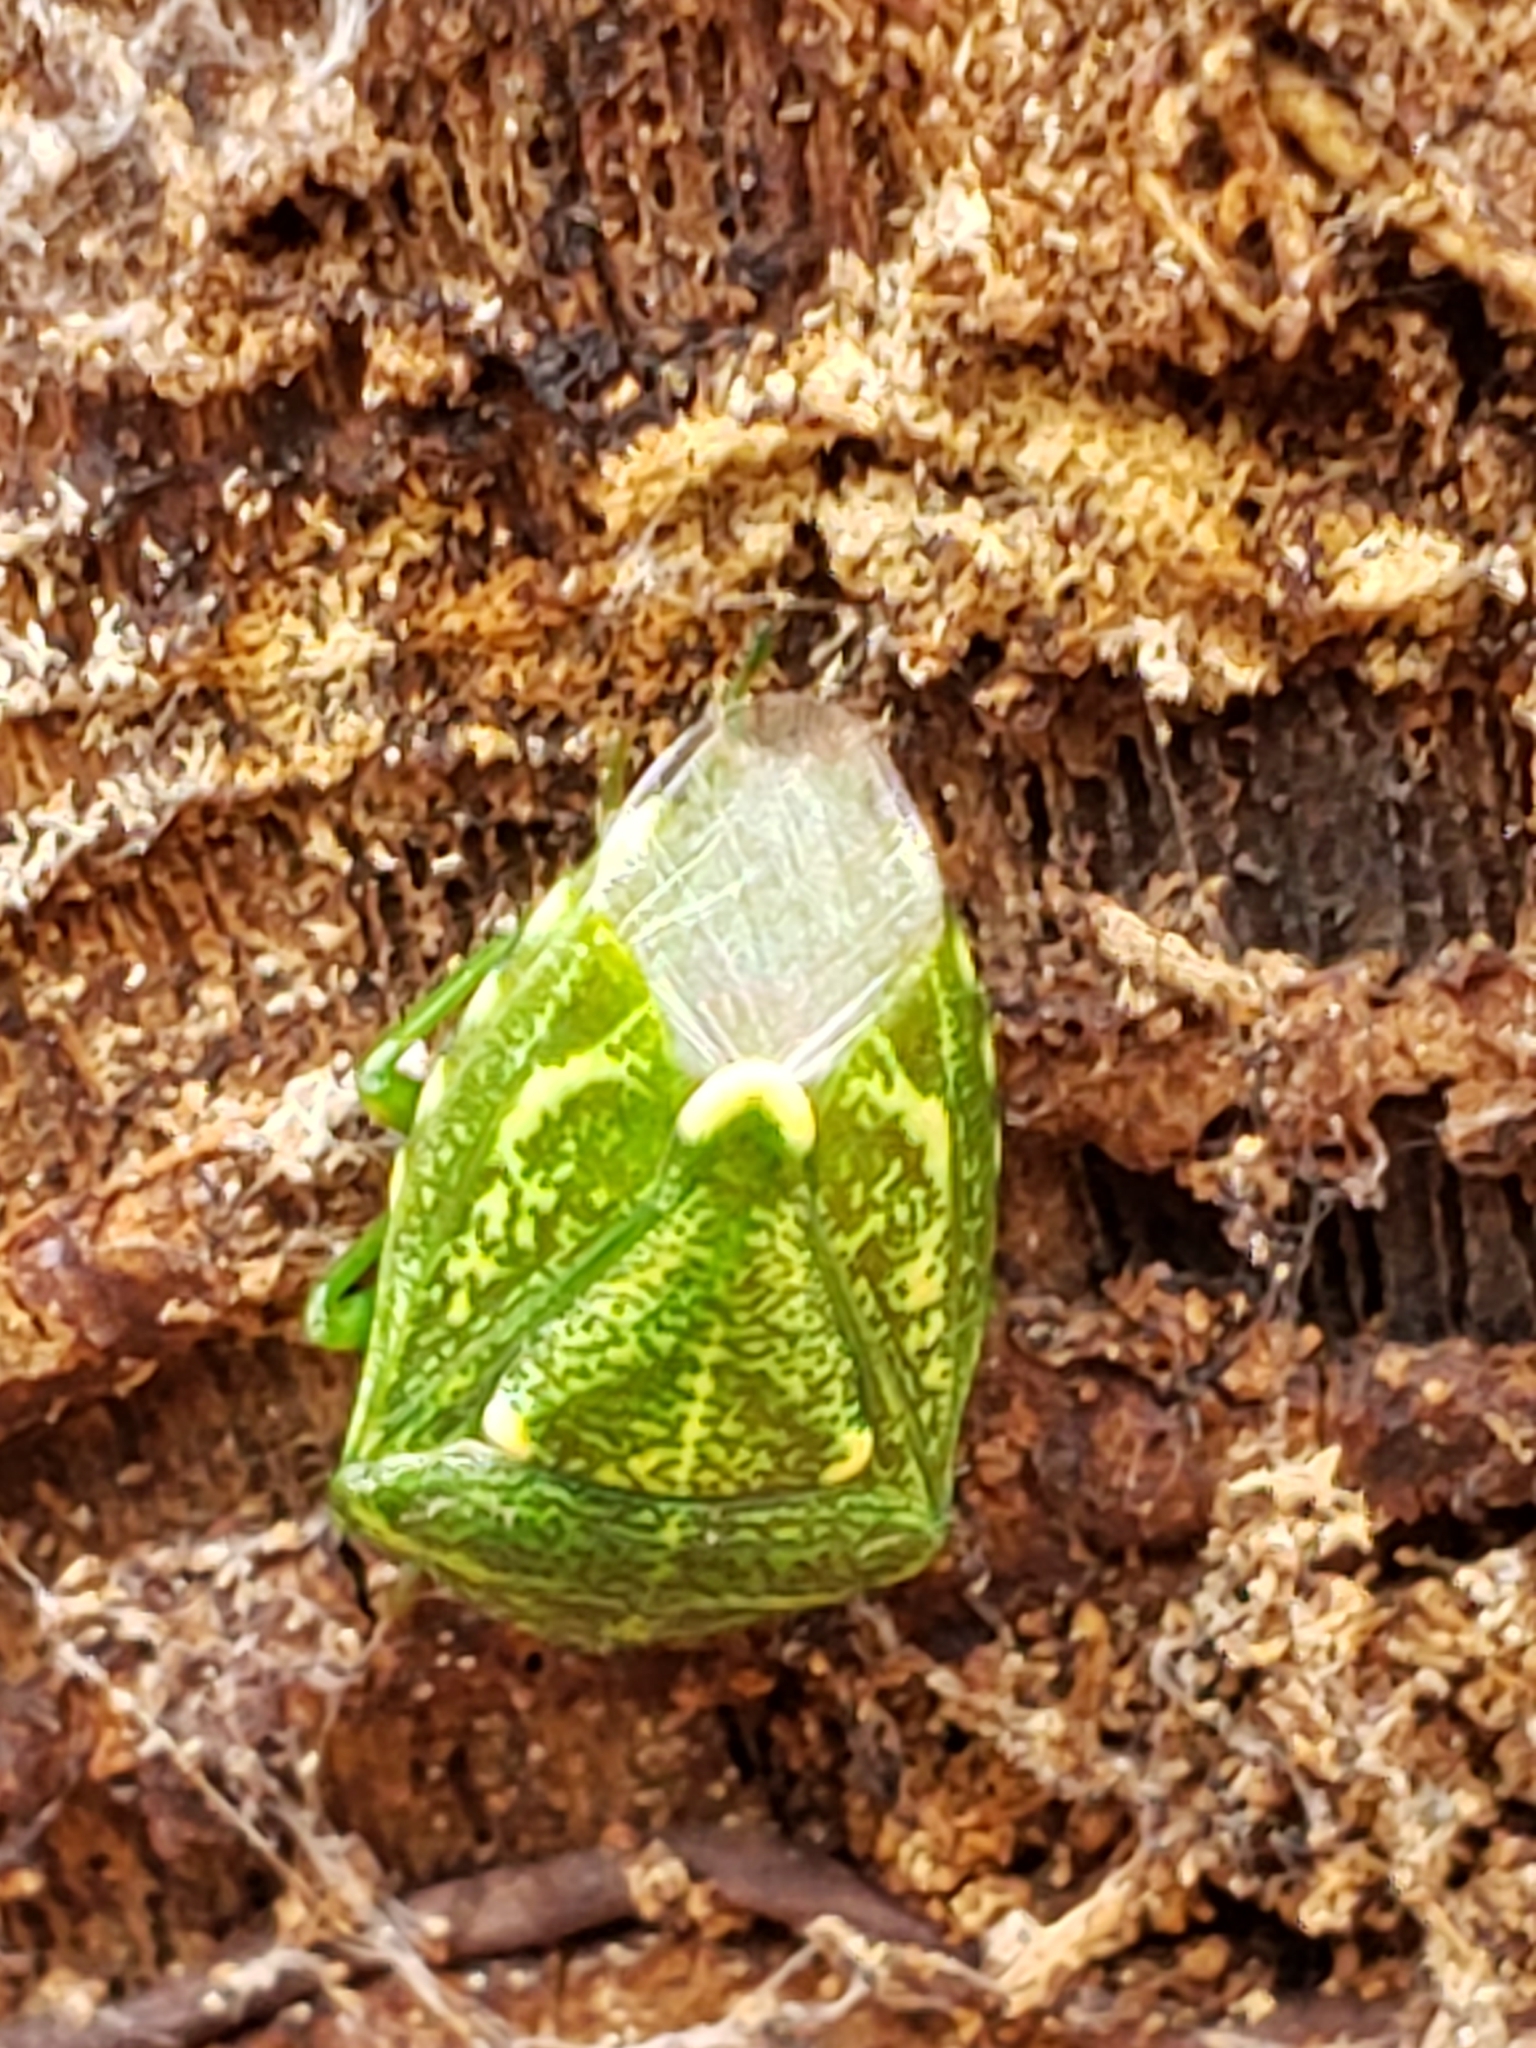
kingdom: Animalia
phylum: Arthropoda
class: Insecta
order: Hemiptera
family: Pentatomidae
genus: Banasa
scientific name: Banasa euchlora
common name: Cedar berry bug
